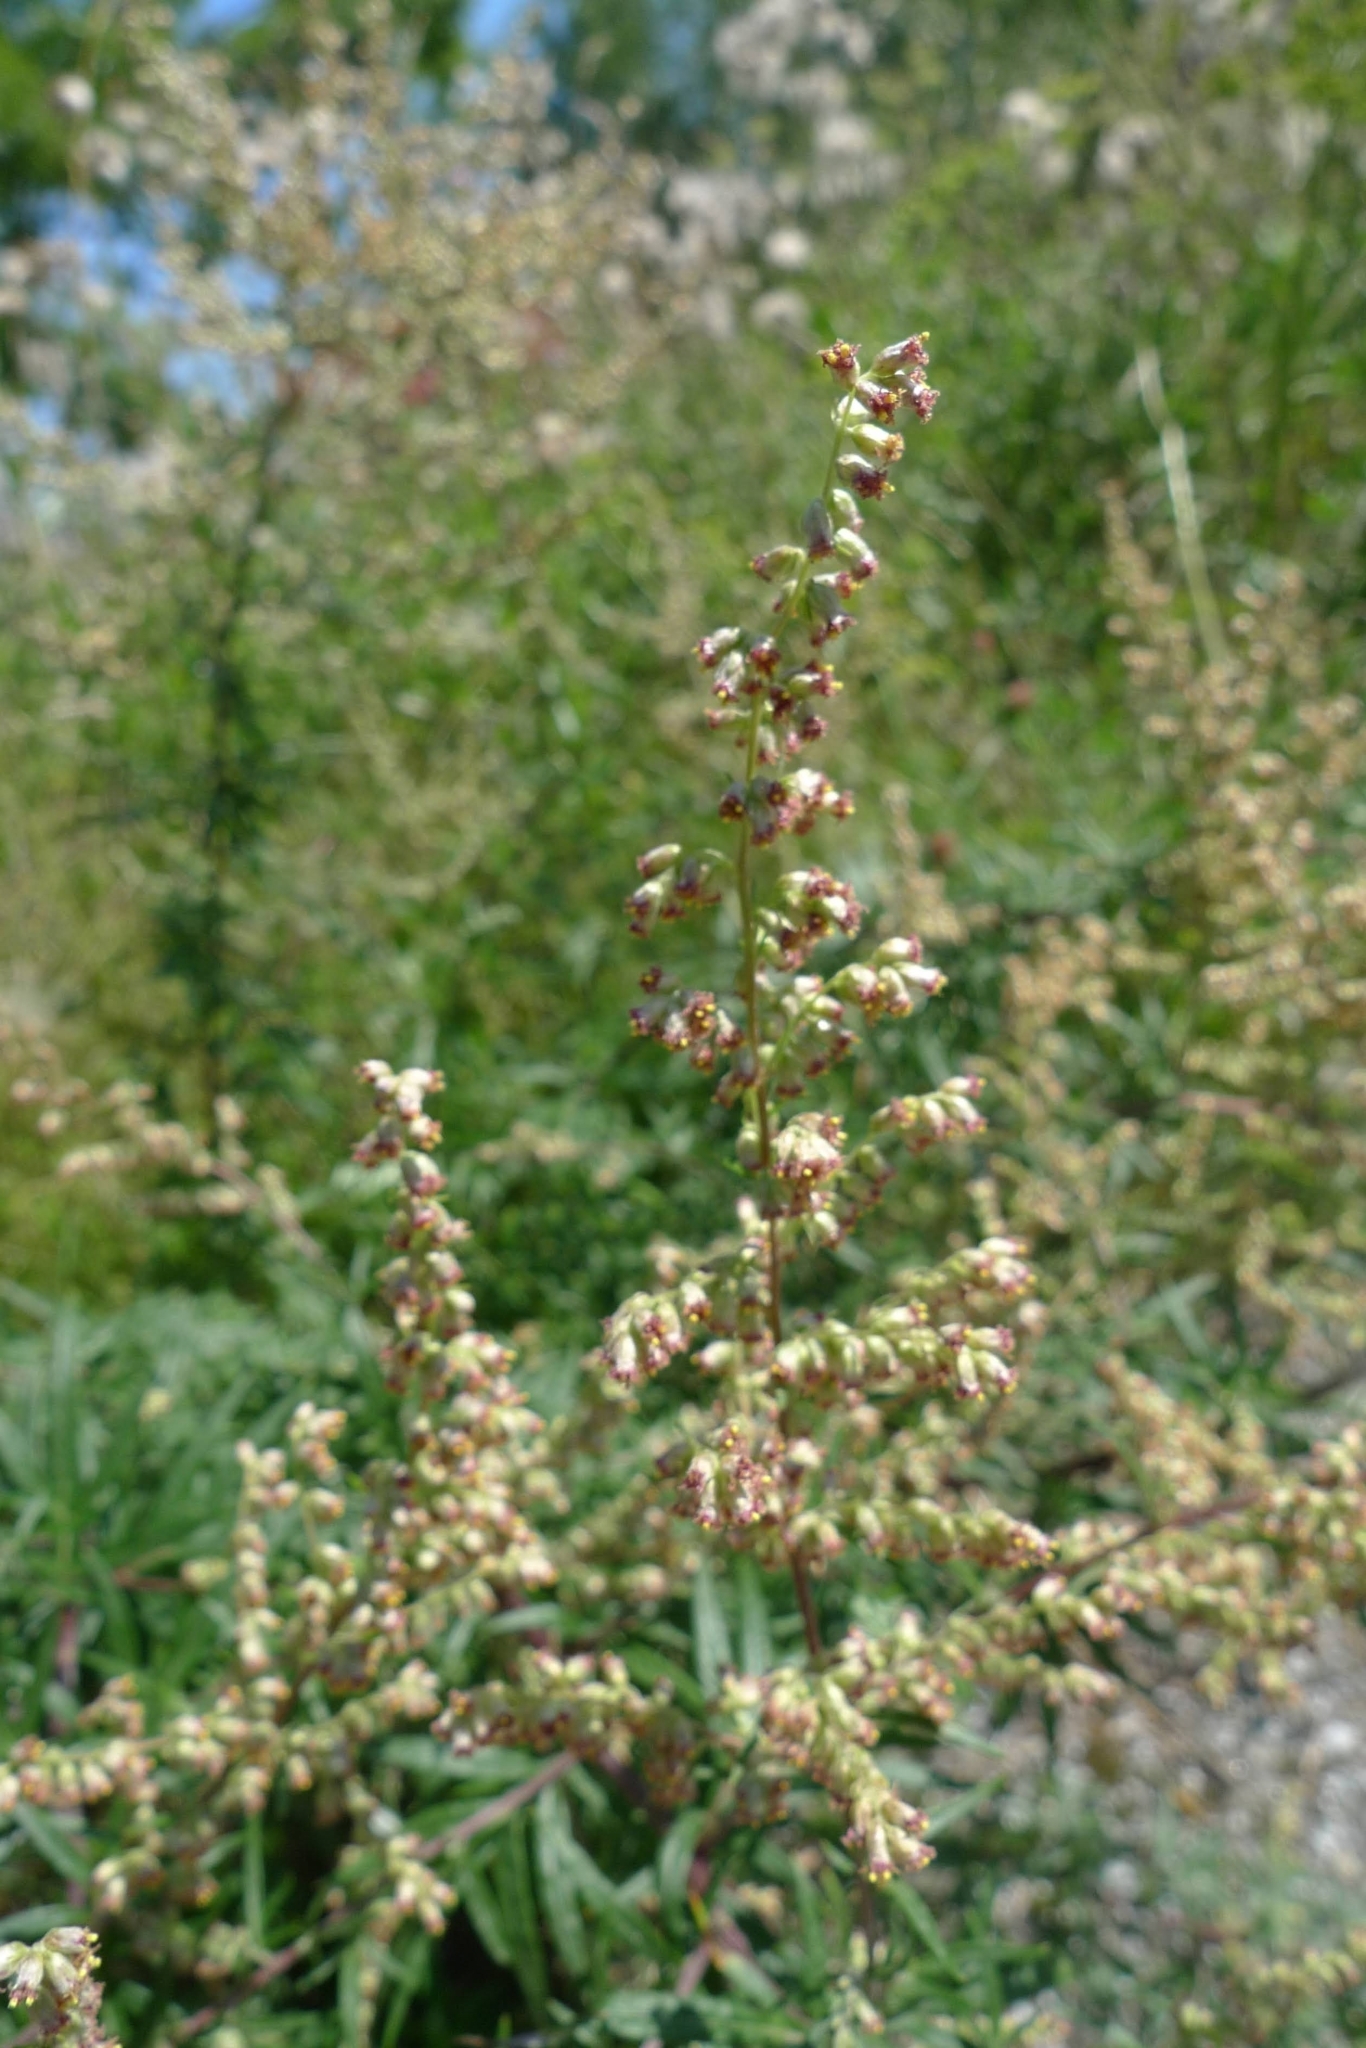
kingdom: Plantae
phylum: Tracheophyta
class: Magnoliopsida
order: Asterales
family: Asteraceae
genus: Artemisia
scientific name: Artemisia vulgaris
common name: Mugwort
